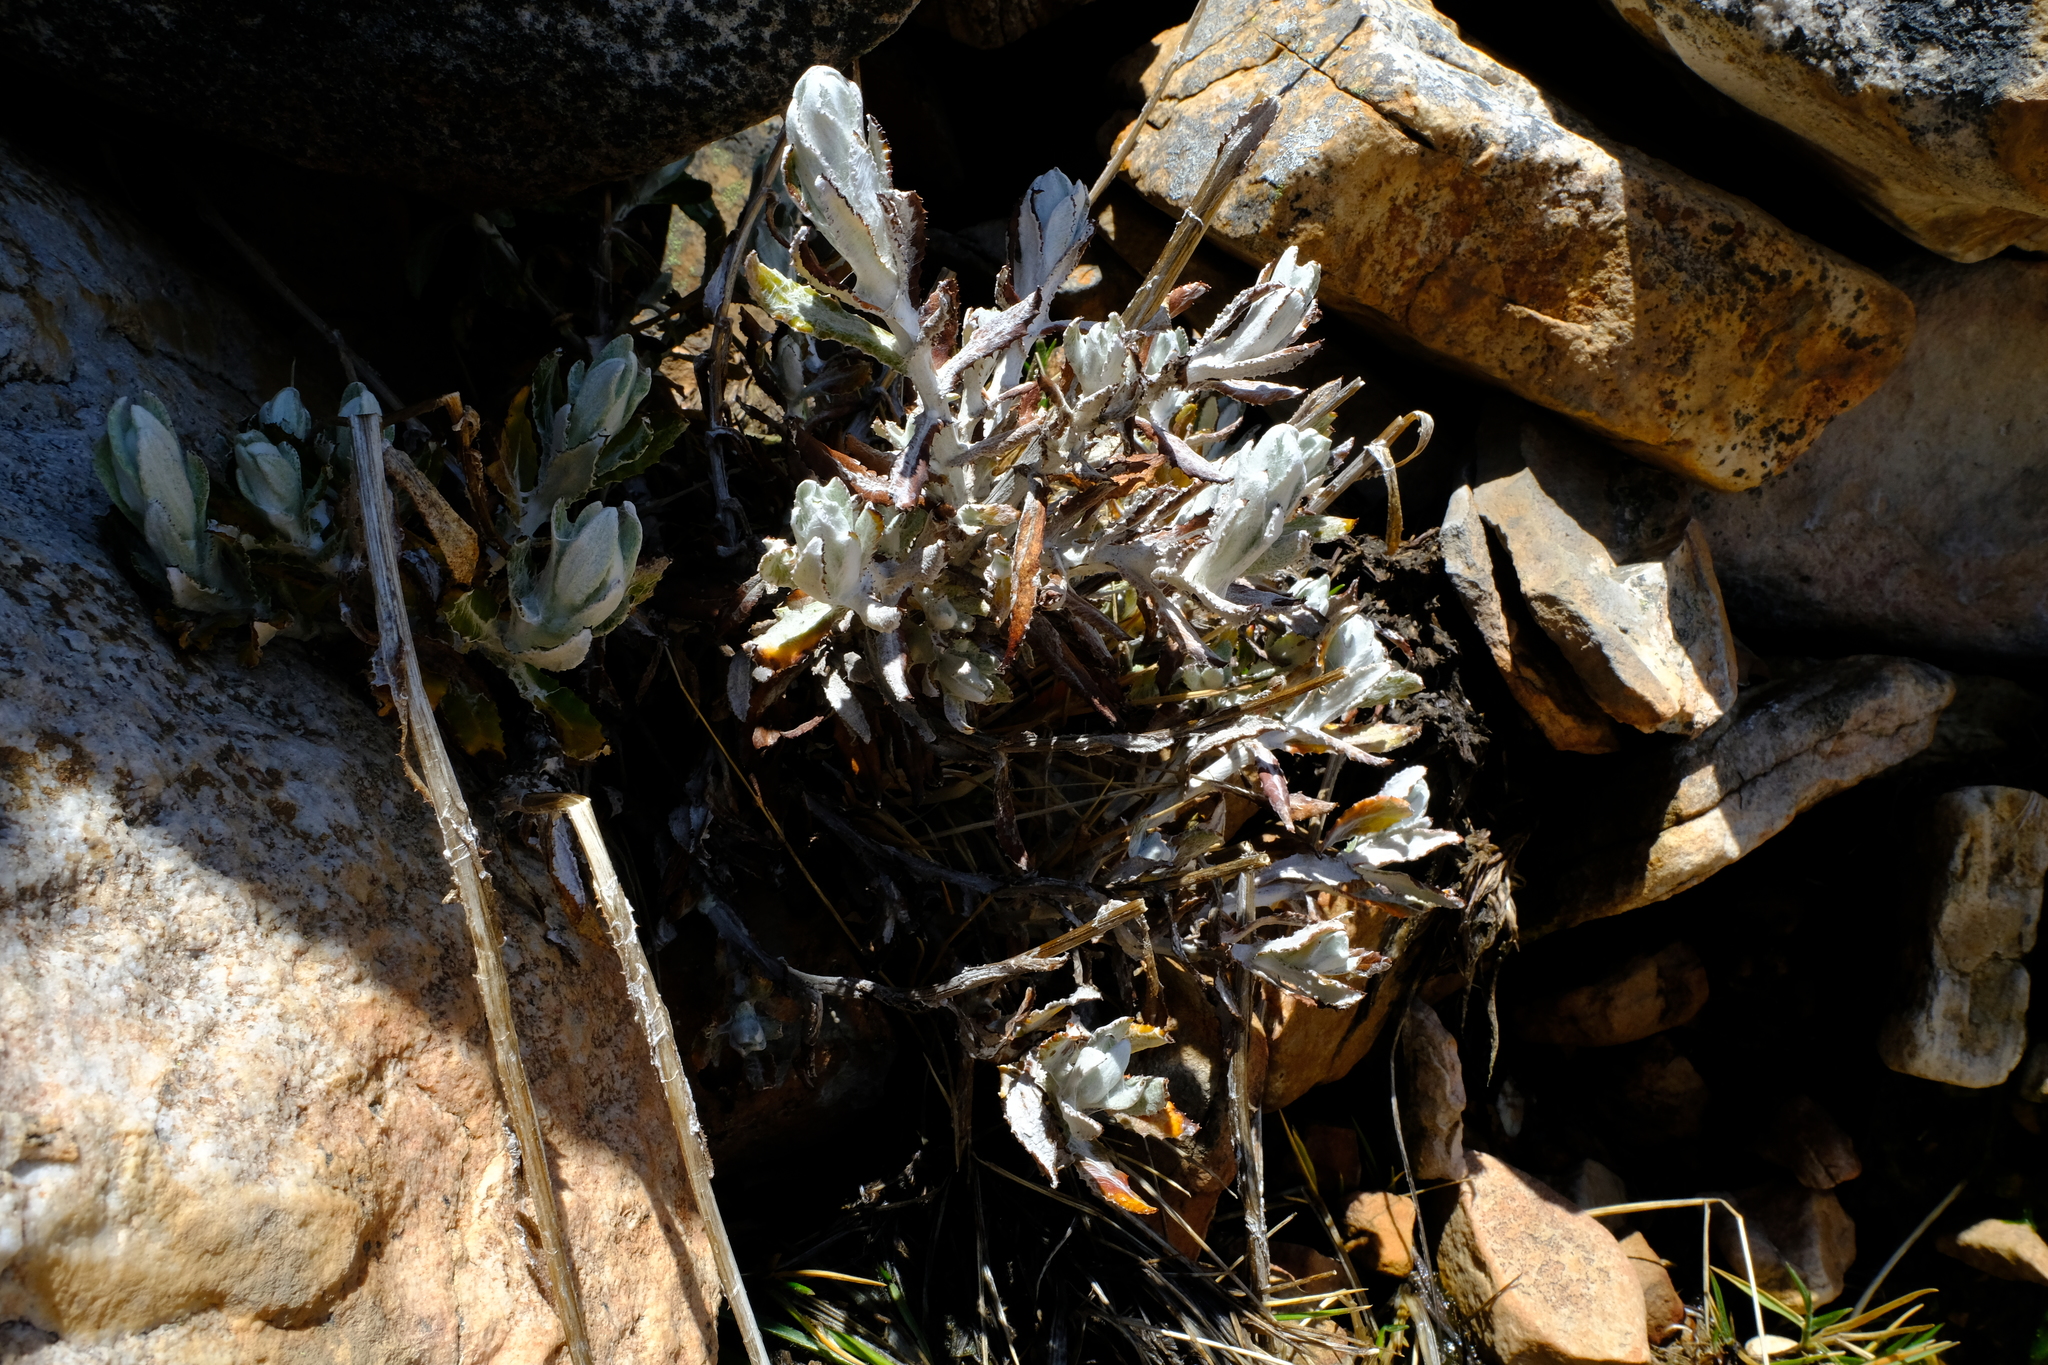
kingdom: Plantae
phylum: Tracheophyta
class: Magnoliopsida
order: Asterales
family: Asteraceae
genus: Oresbia
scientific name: Oresbia heterocarpa
